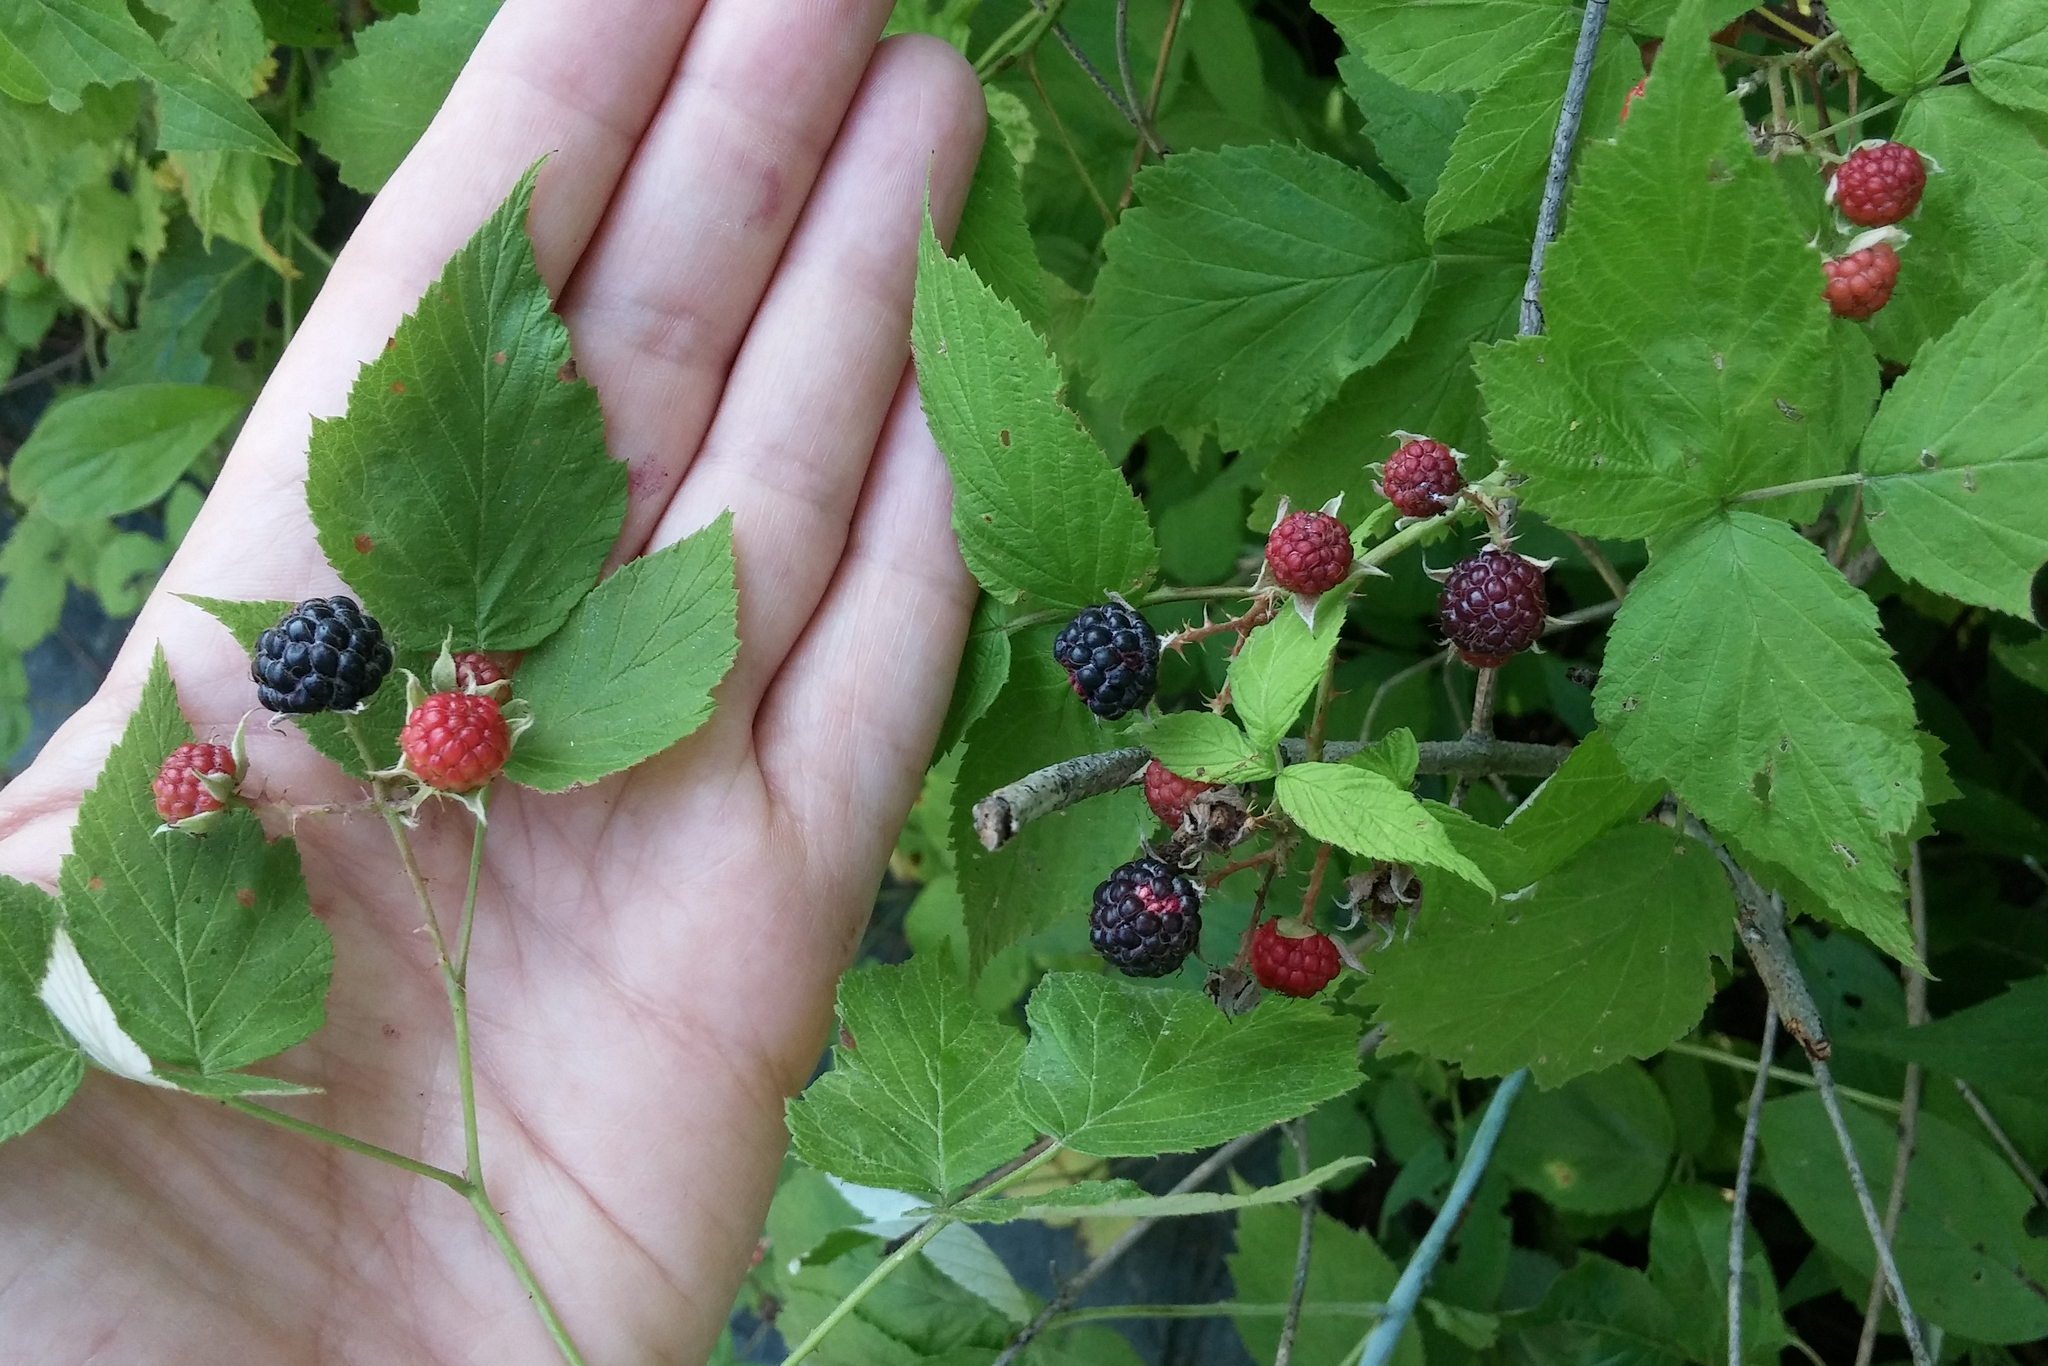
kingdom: Plantae
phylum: Tracheophyta
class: Magnoliopsida
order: Rosales
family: Rosaceae
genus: Rubus
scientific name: Rubus occidentalis
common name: Black raspberry
